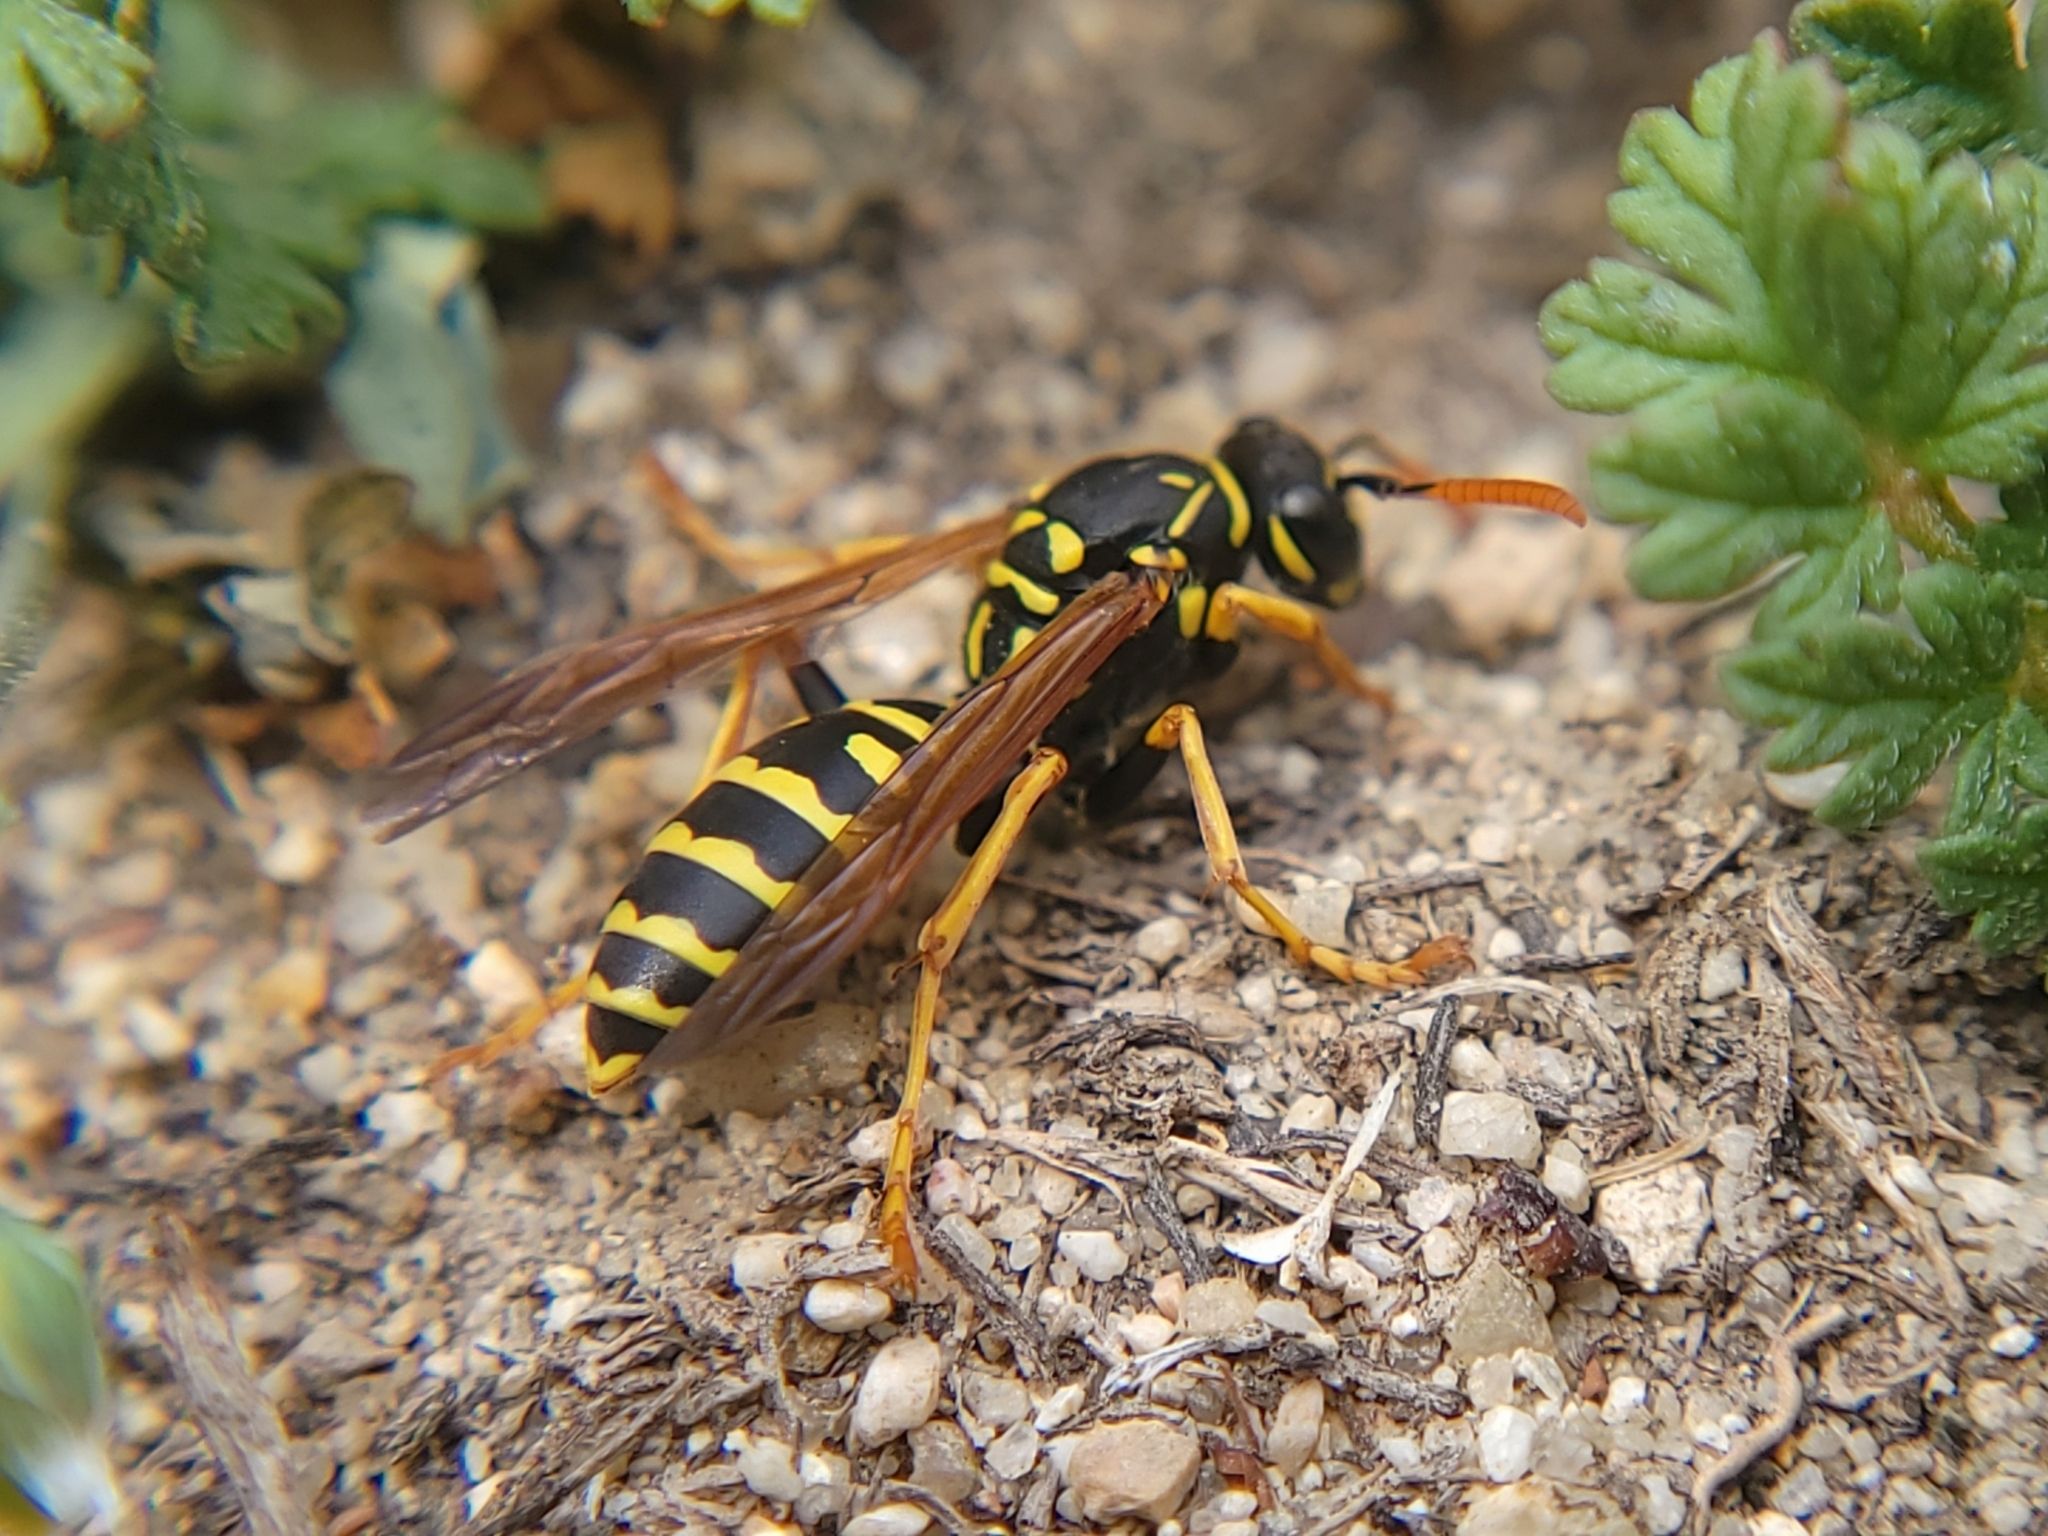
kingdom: Animalia
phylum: Arthropoda
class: Insecta
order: Hymenoptera
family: Eumenidae
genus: Polistes
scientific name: Polistes dominula
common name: Paper wasp
